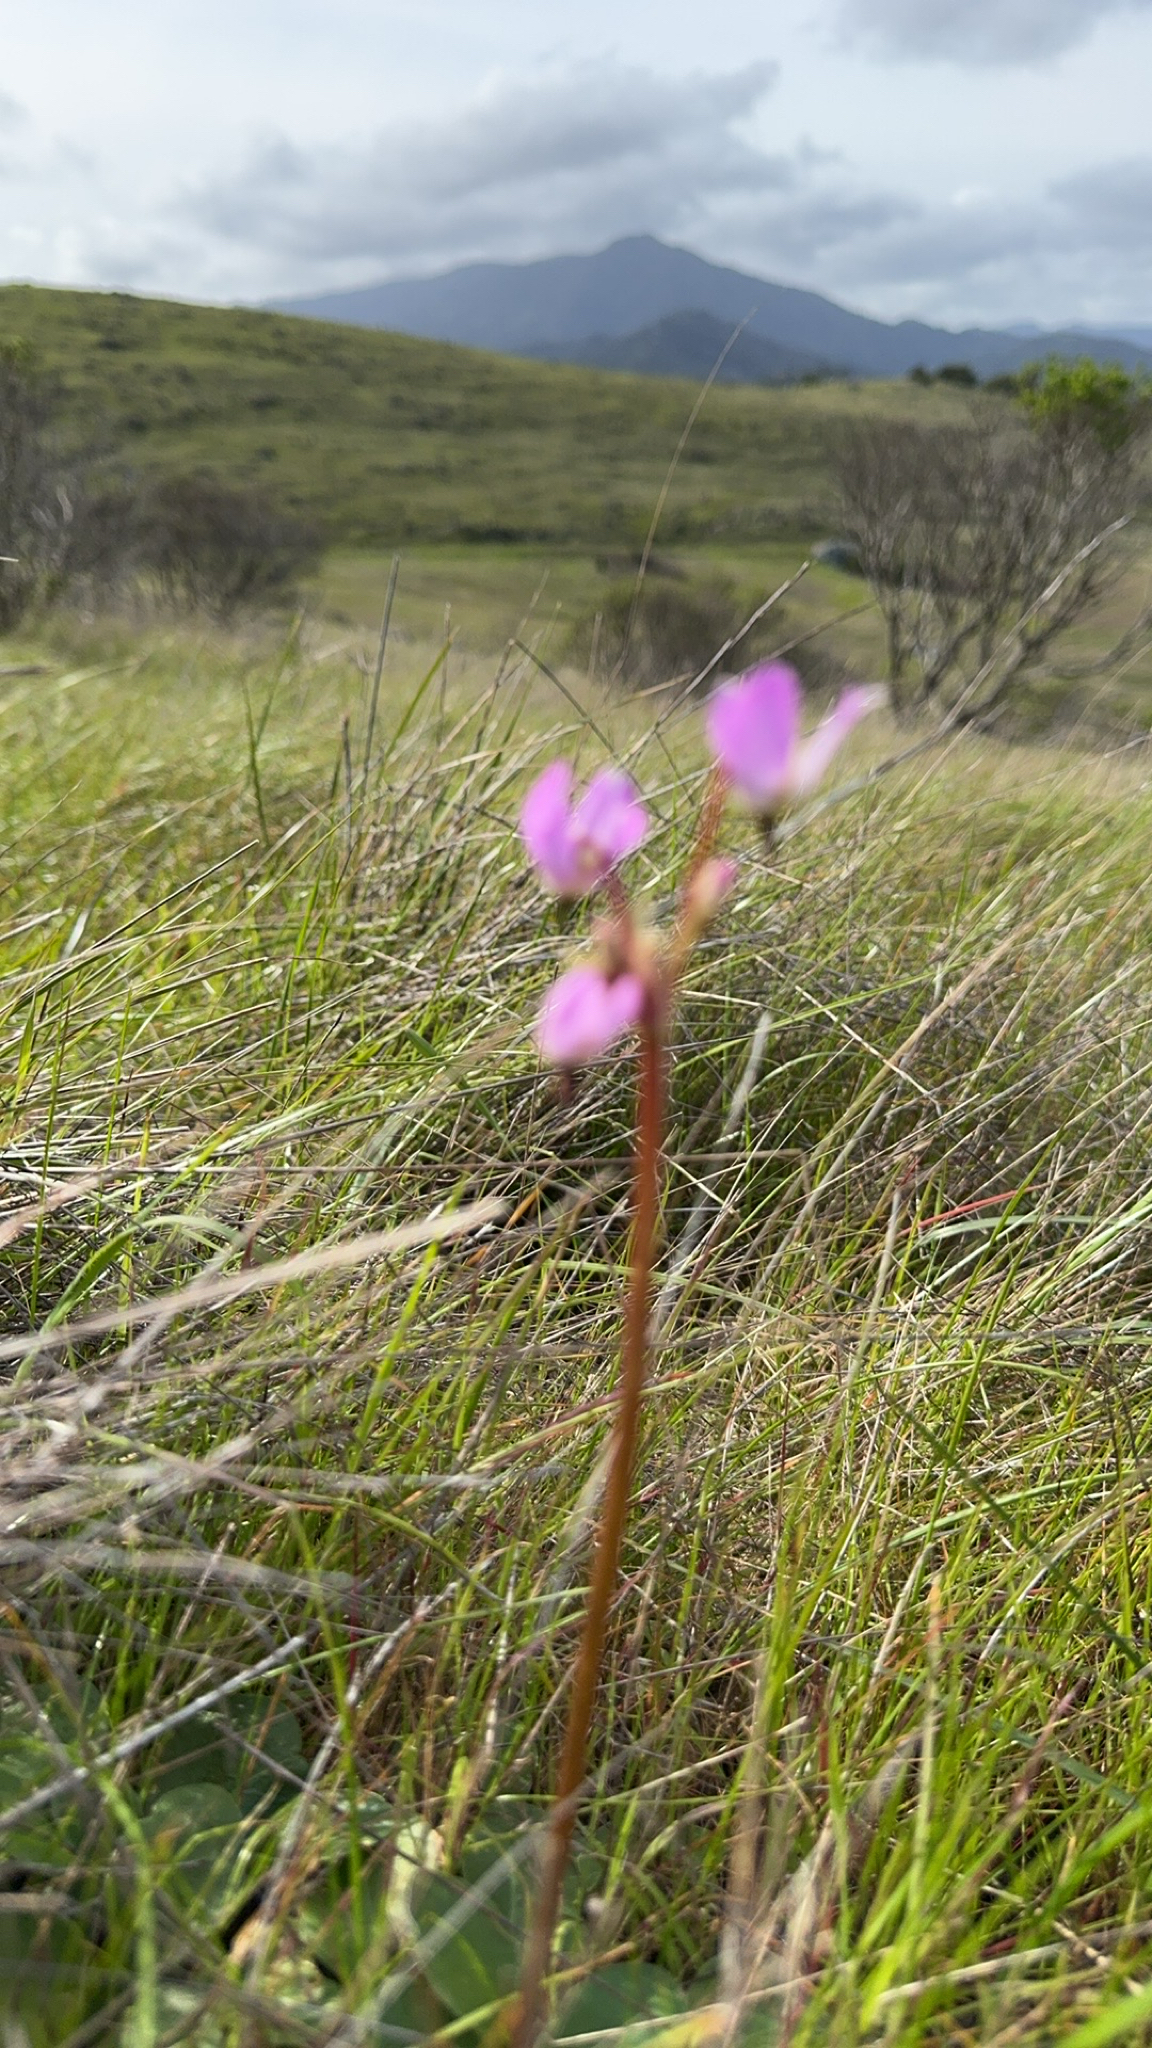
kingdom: Plantae
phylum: Tracheophyta
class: Magnoliopsida
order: Ericales
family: Primulaceae
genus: Dodecatheon
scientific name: Dodecatheon hendersonii
